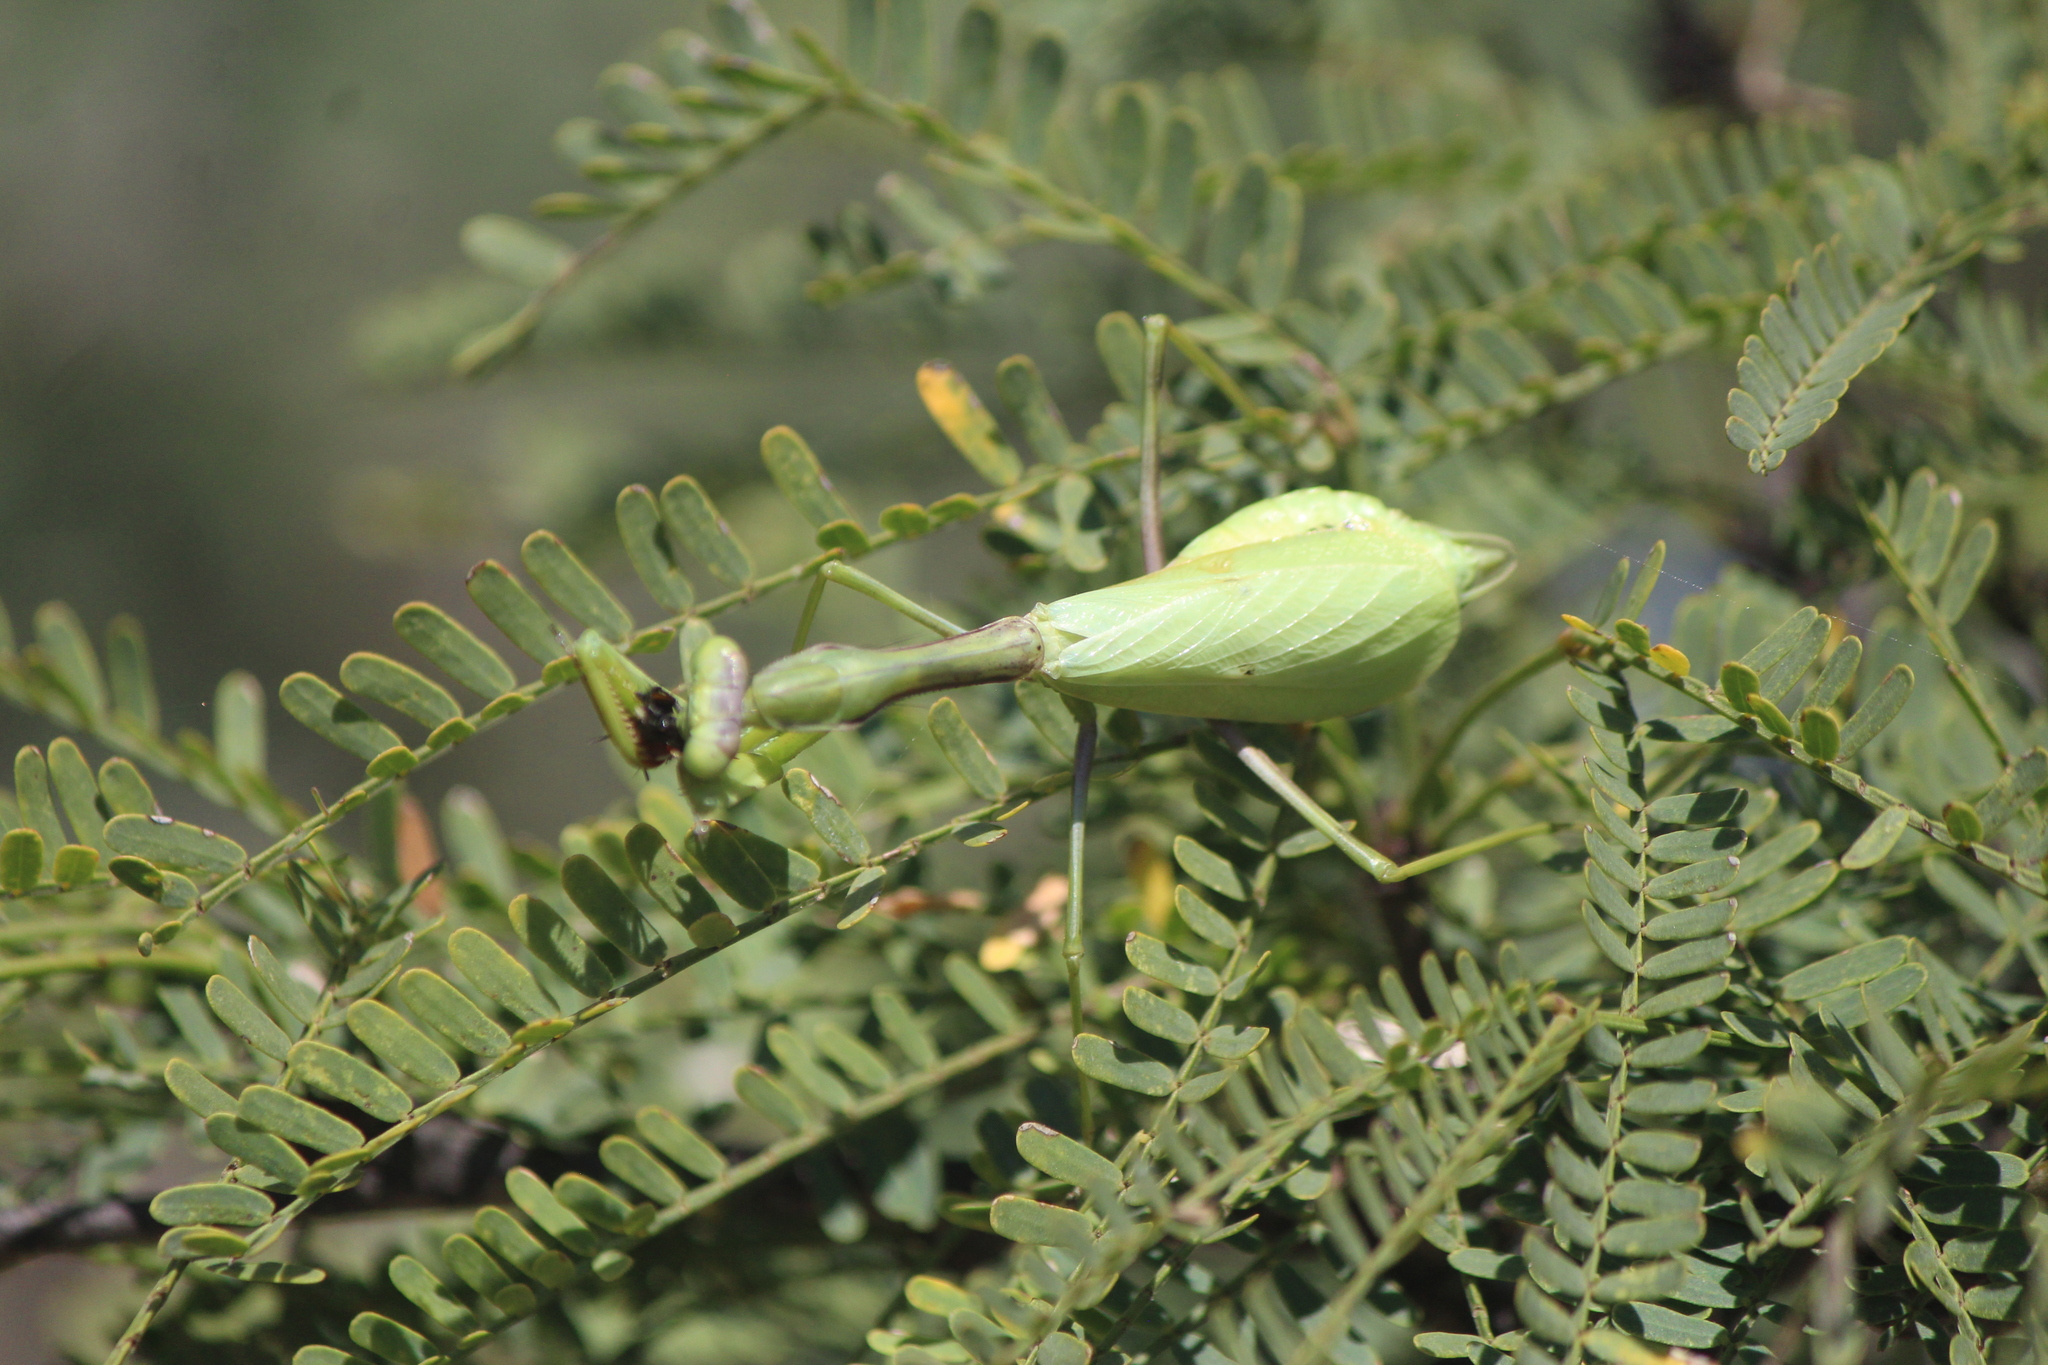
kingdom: Animalia
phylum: Arthropoda
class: Insecta
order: Mantodea
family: Mantidae
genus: Stagmomantis
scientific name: Stagmomantis limbata
